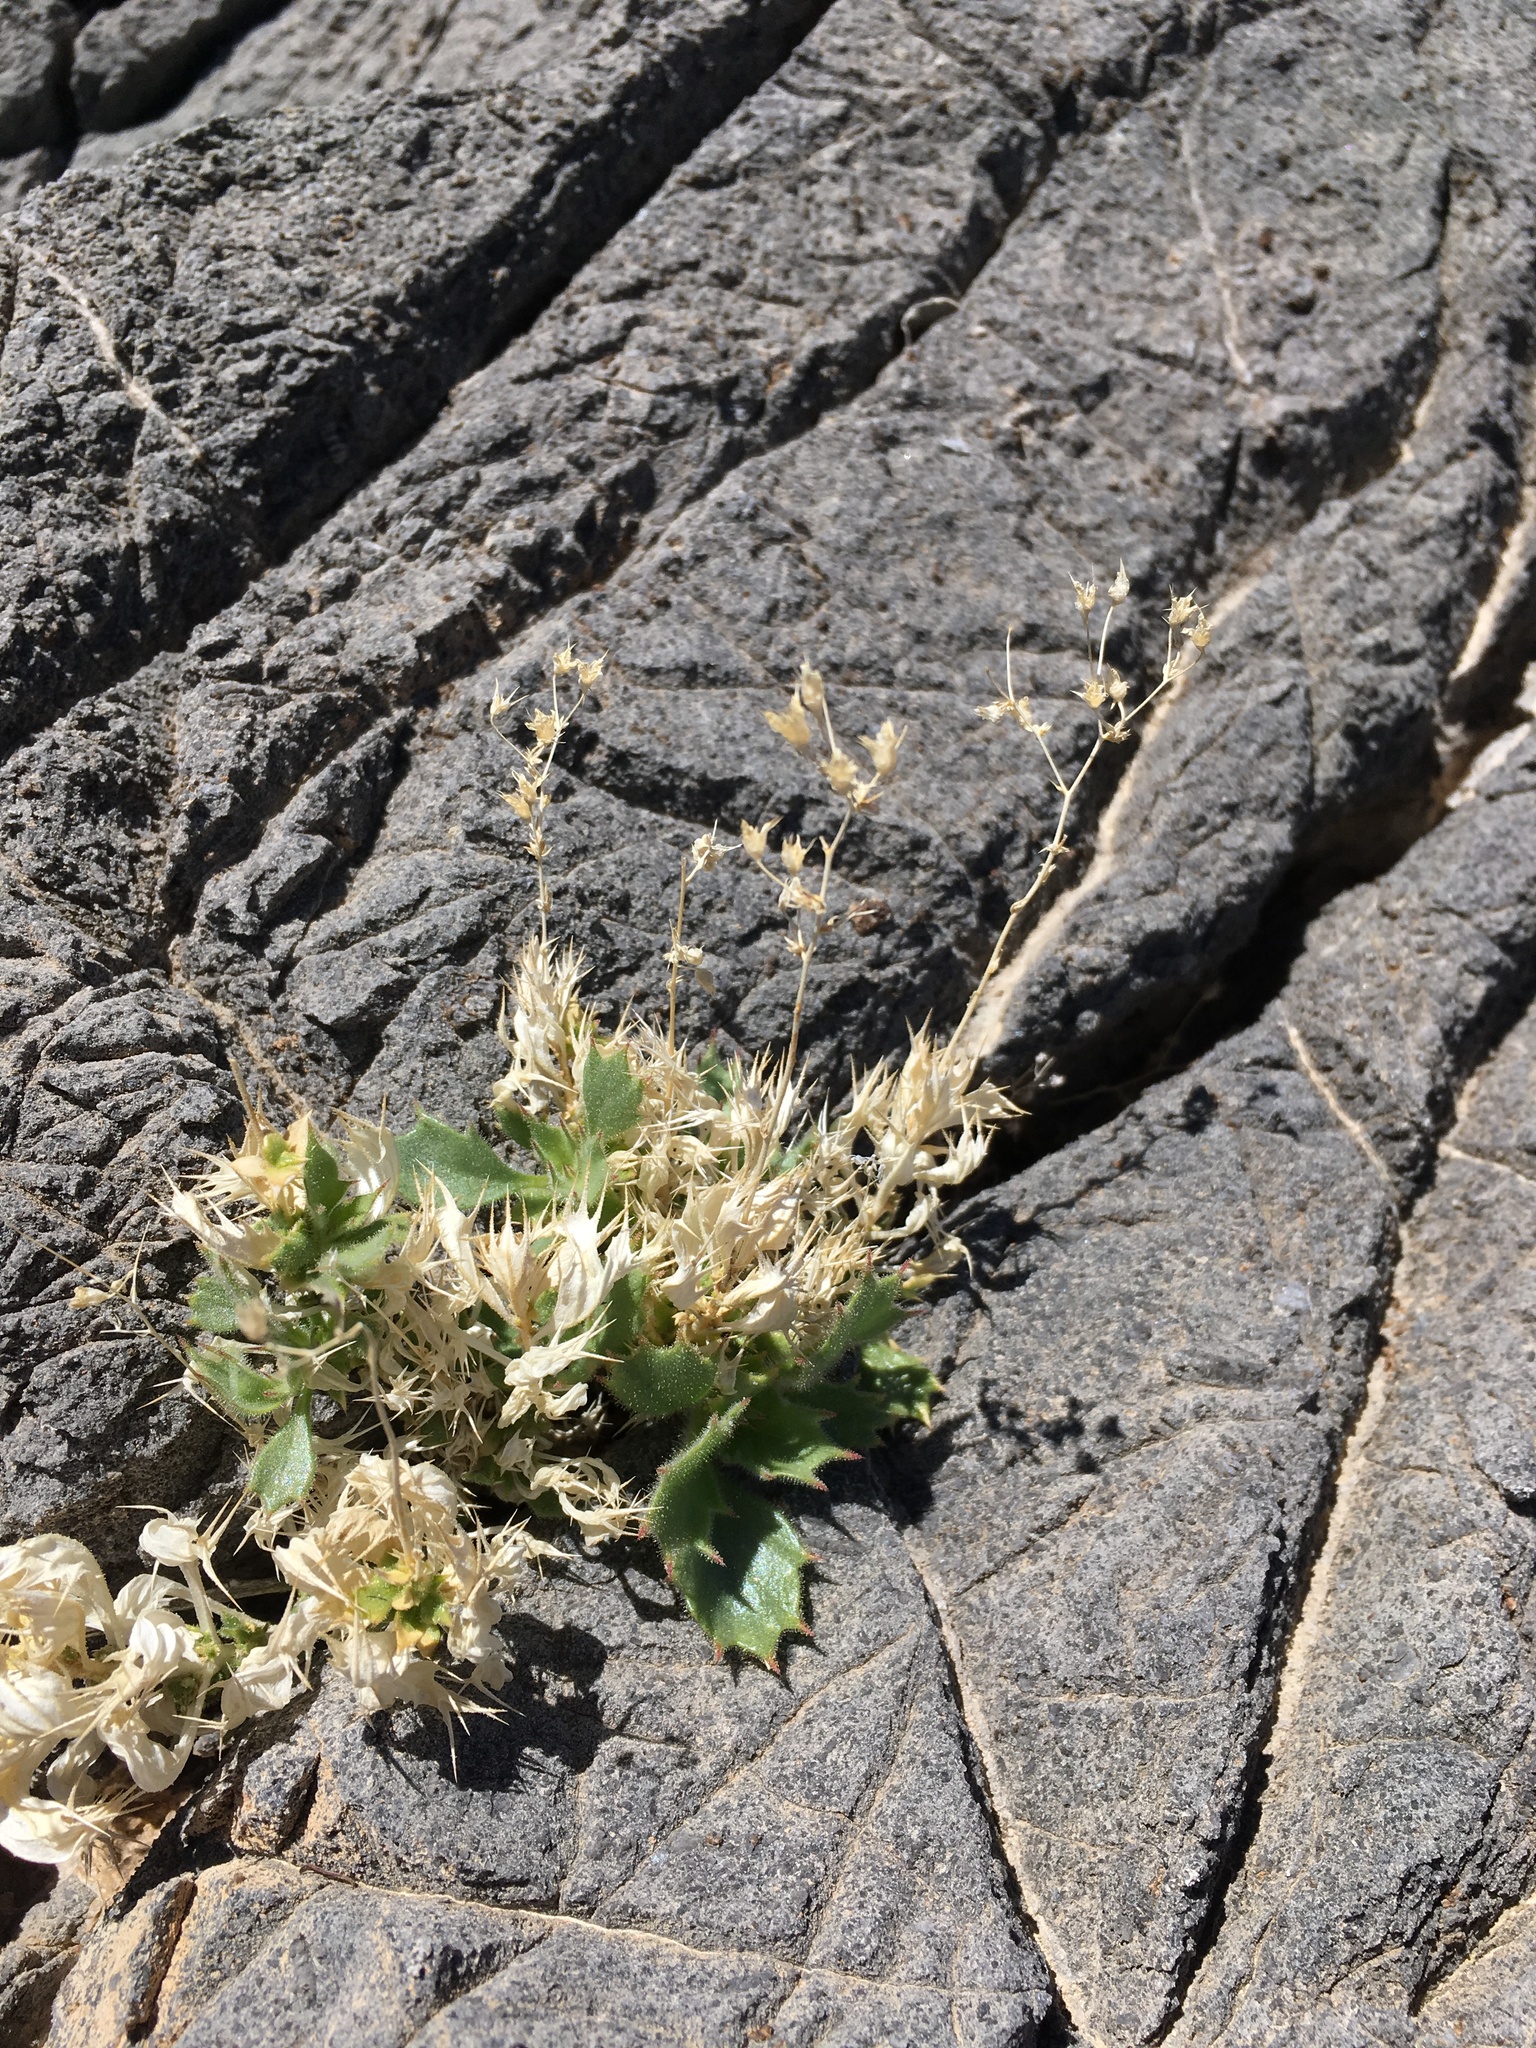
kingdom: Plantae
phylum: Tracheophyta
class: Magnoliopsida
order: Ericales
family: Polemoniaceae
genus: Aliciella
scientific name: Aliciella ripleyi
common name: Ripley's gilia
